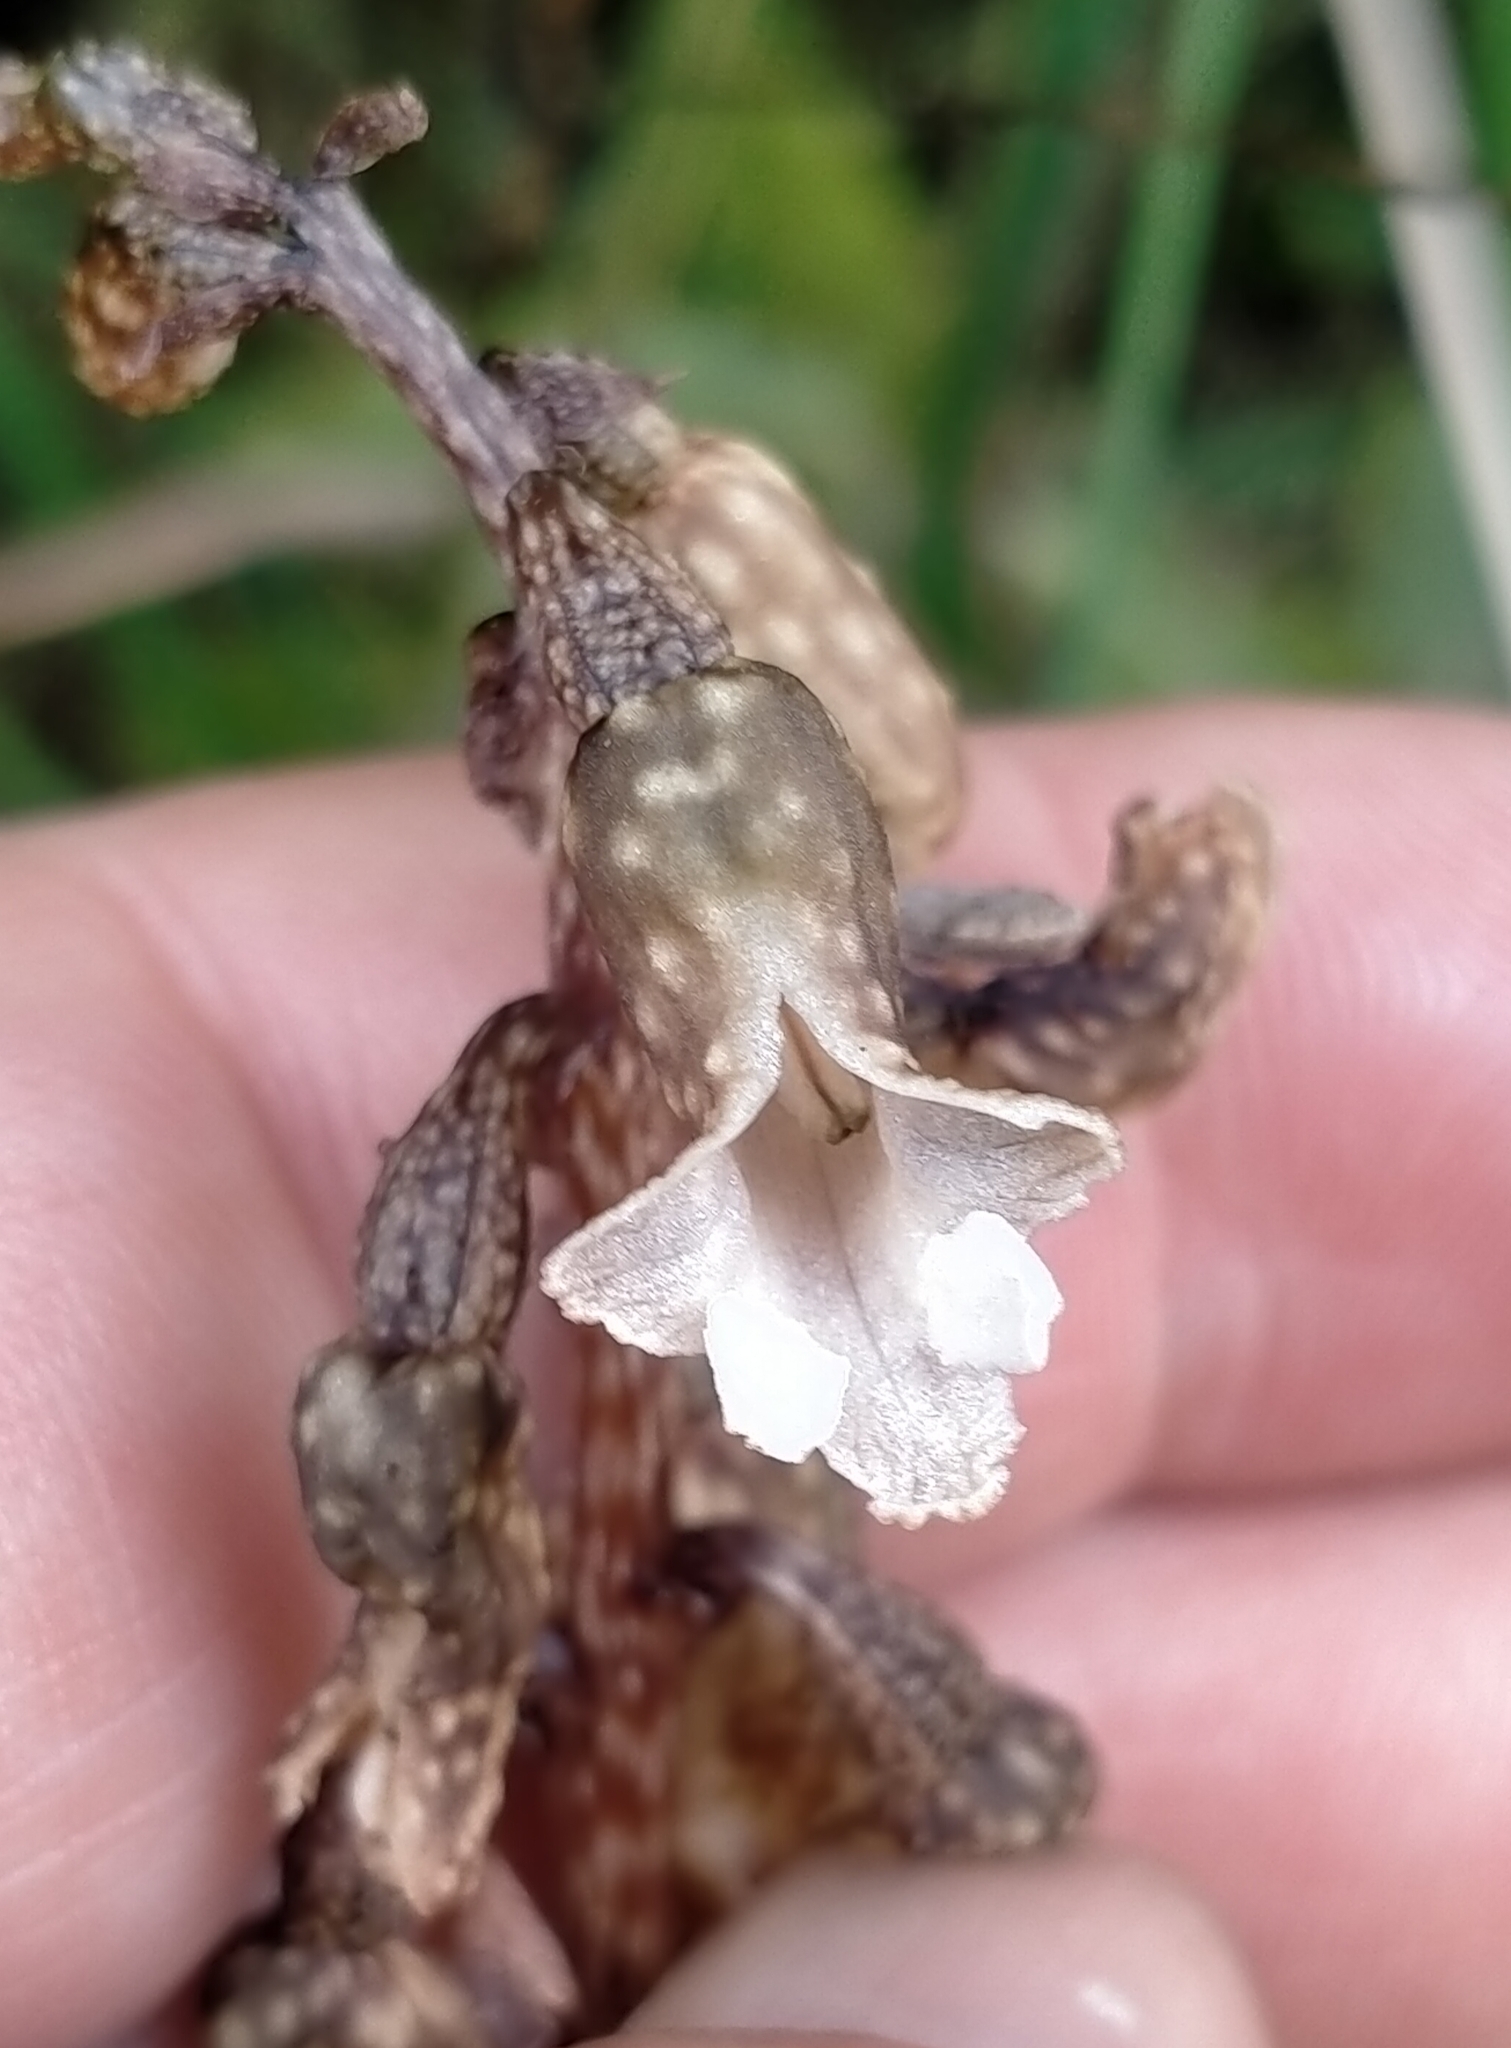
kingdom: Plantae
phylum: Tracheophyta
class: Liliopsida
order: Asparagales
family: Orchidaceae
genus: Gastrodia
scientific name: Gastrodia cunninghamii
